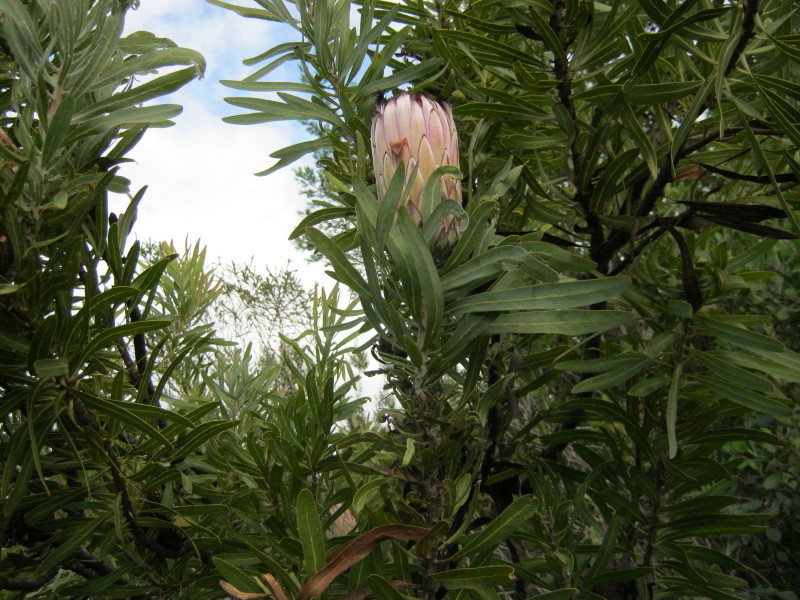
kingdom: Plantae
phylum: Tracheophyta
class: Magnoliopsida
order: Proteales
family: Proteaceae
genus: Protea
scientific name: Protea neriifolia
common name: Blue sugarbush
